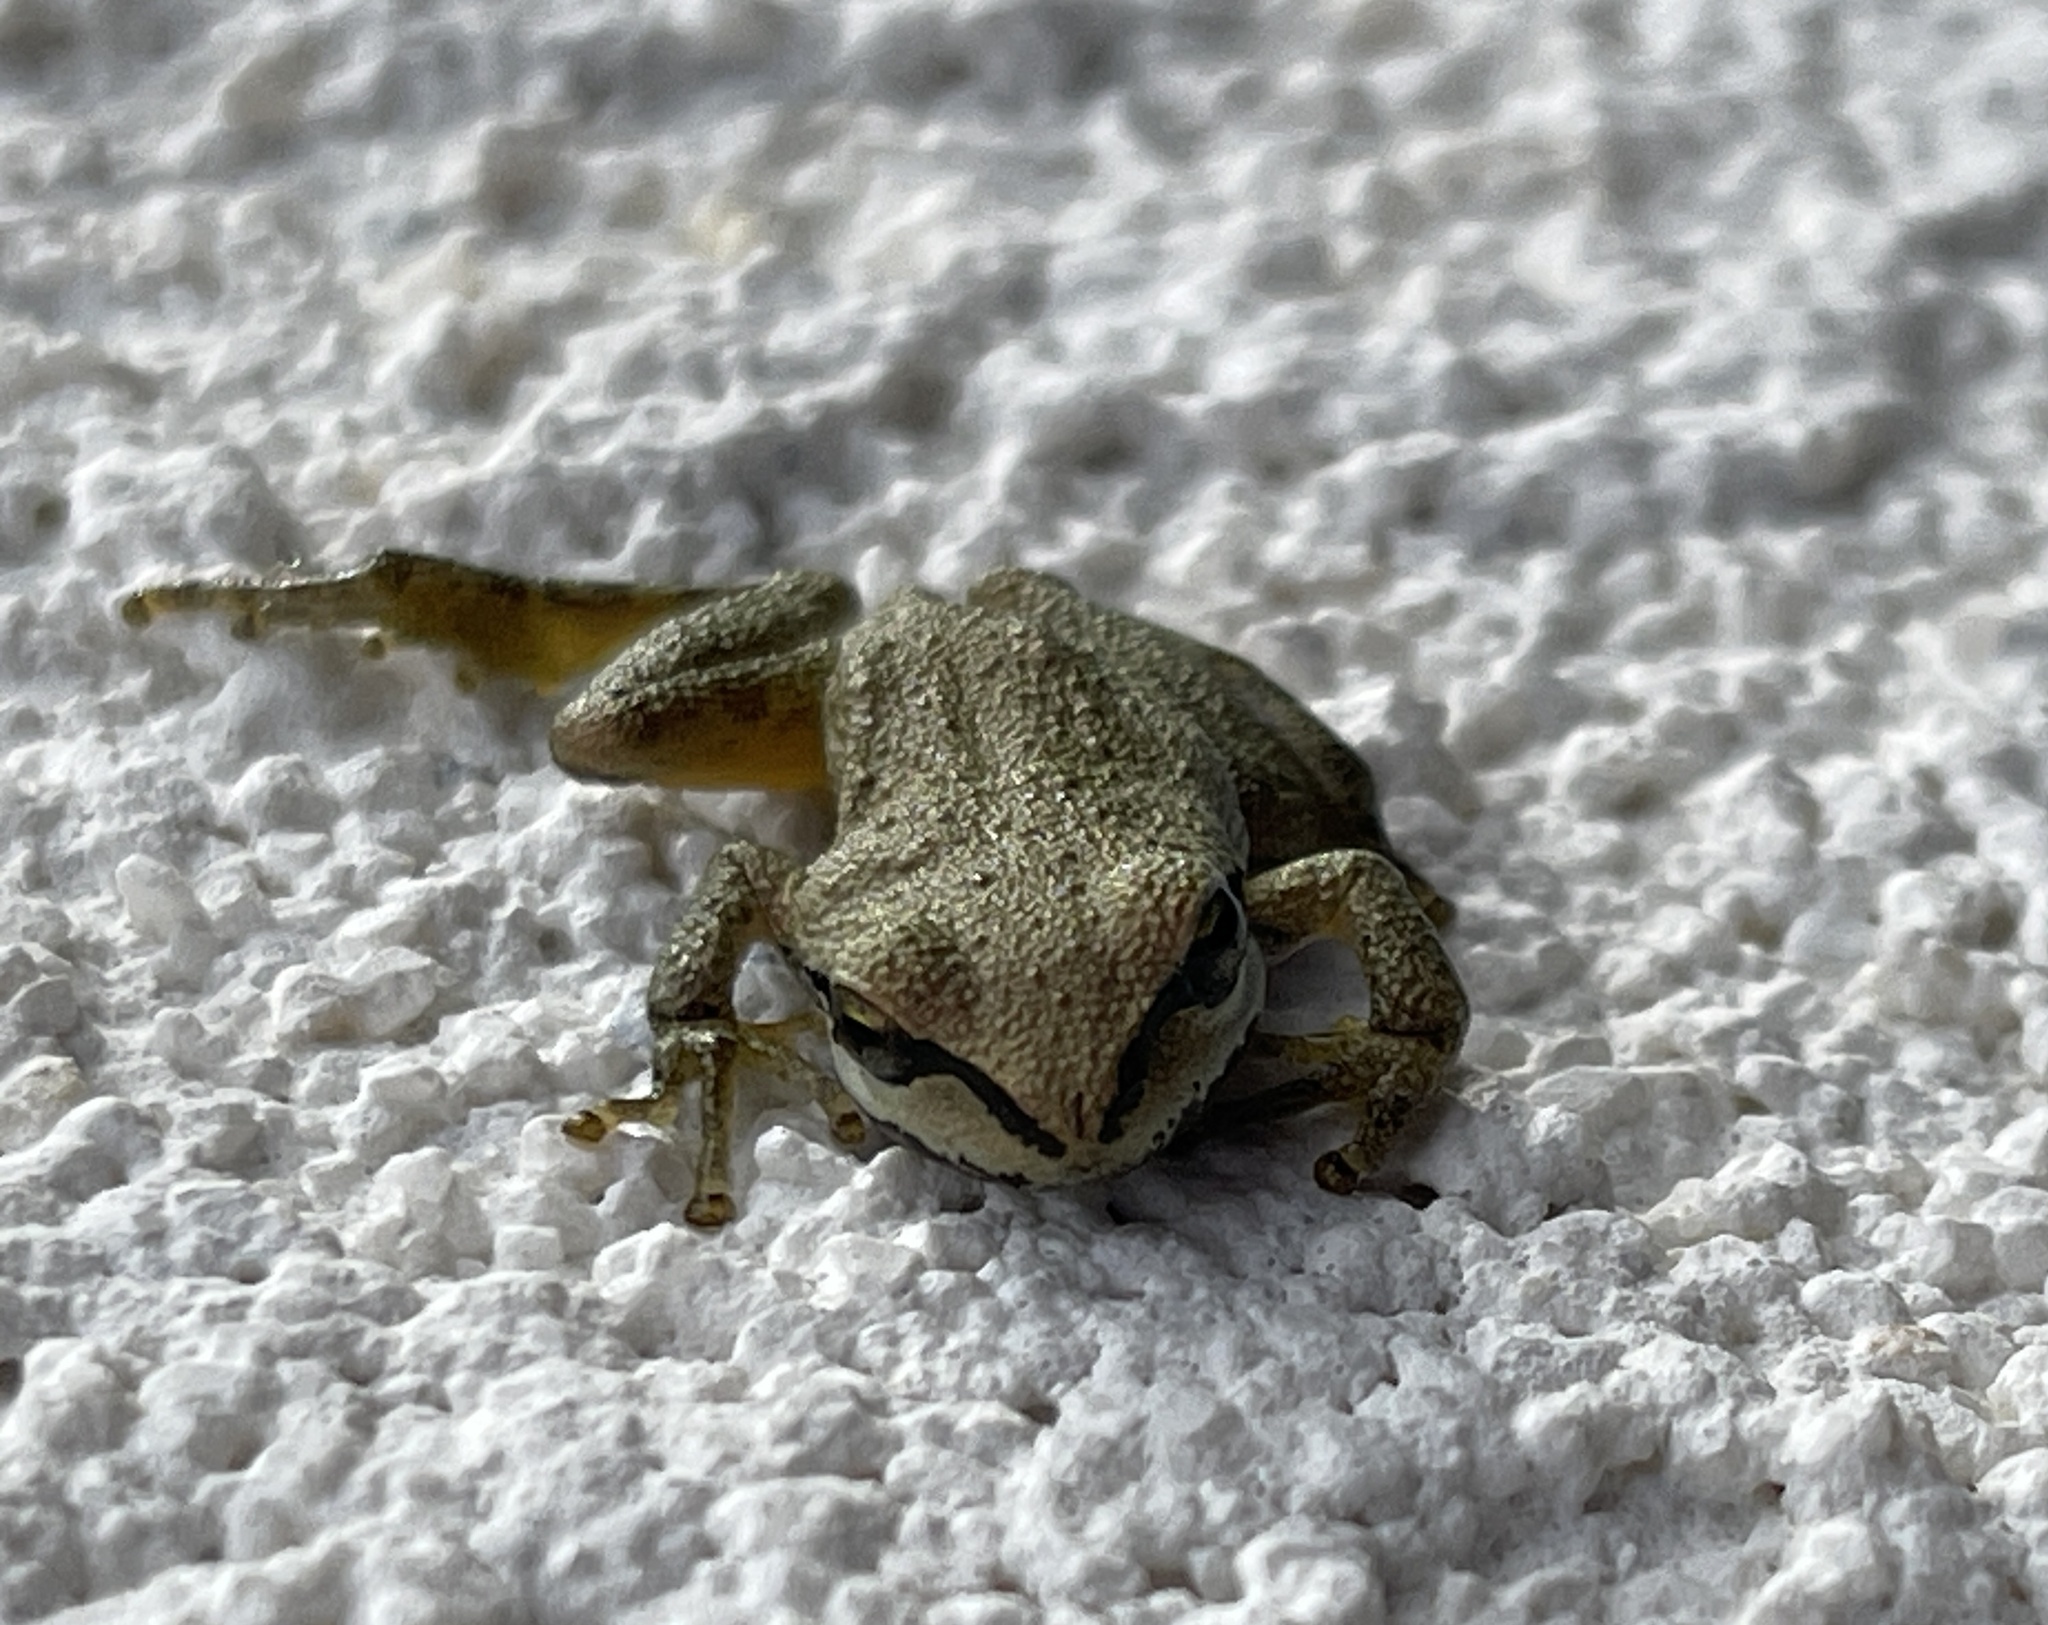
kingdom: Animalia
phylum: Chordata
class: Amphibia
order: Anura
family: Hylidae
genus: Pseudacris
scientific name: Pseudacris regilla
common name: Pacific chorus frog
